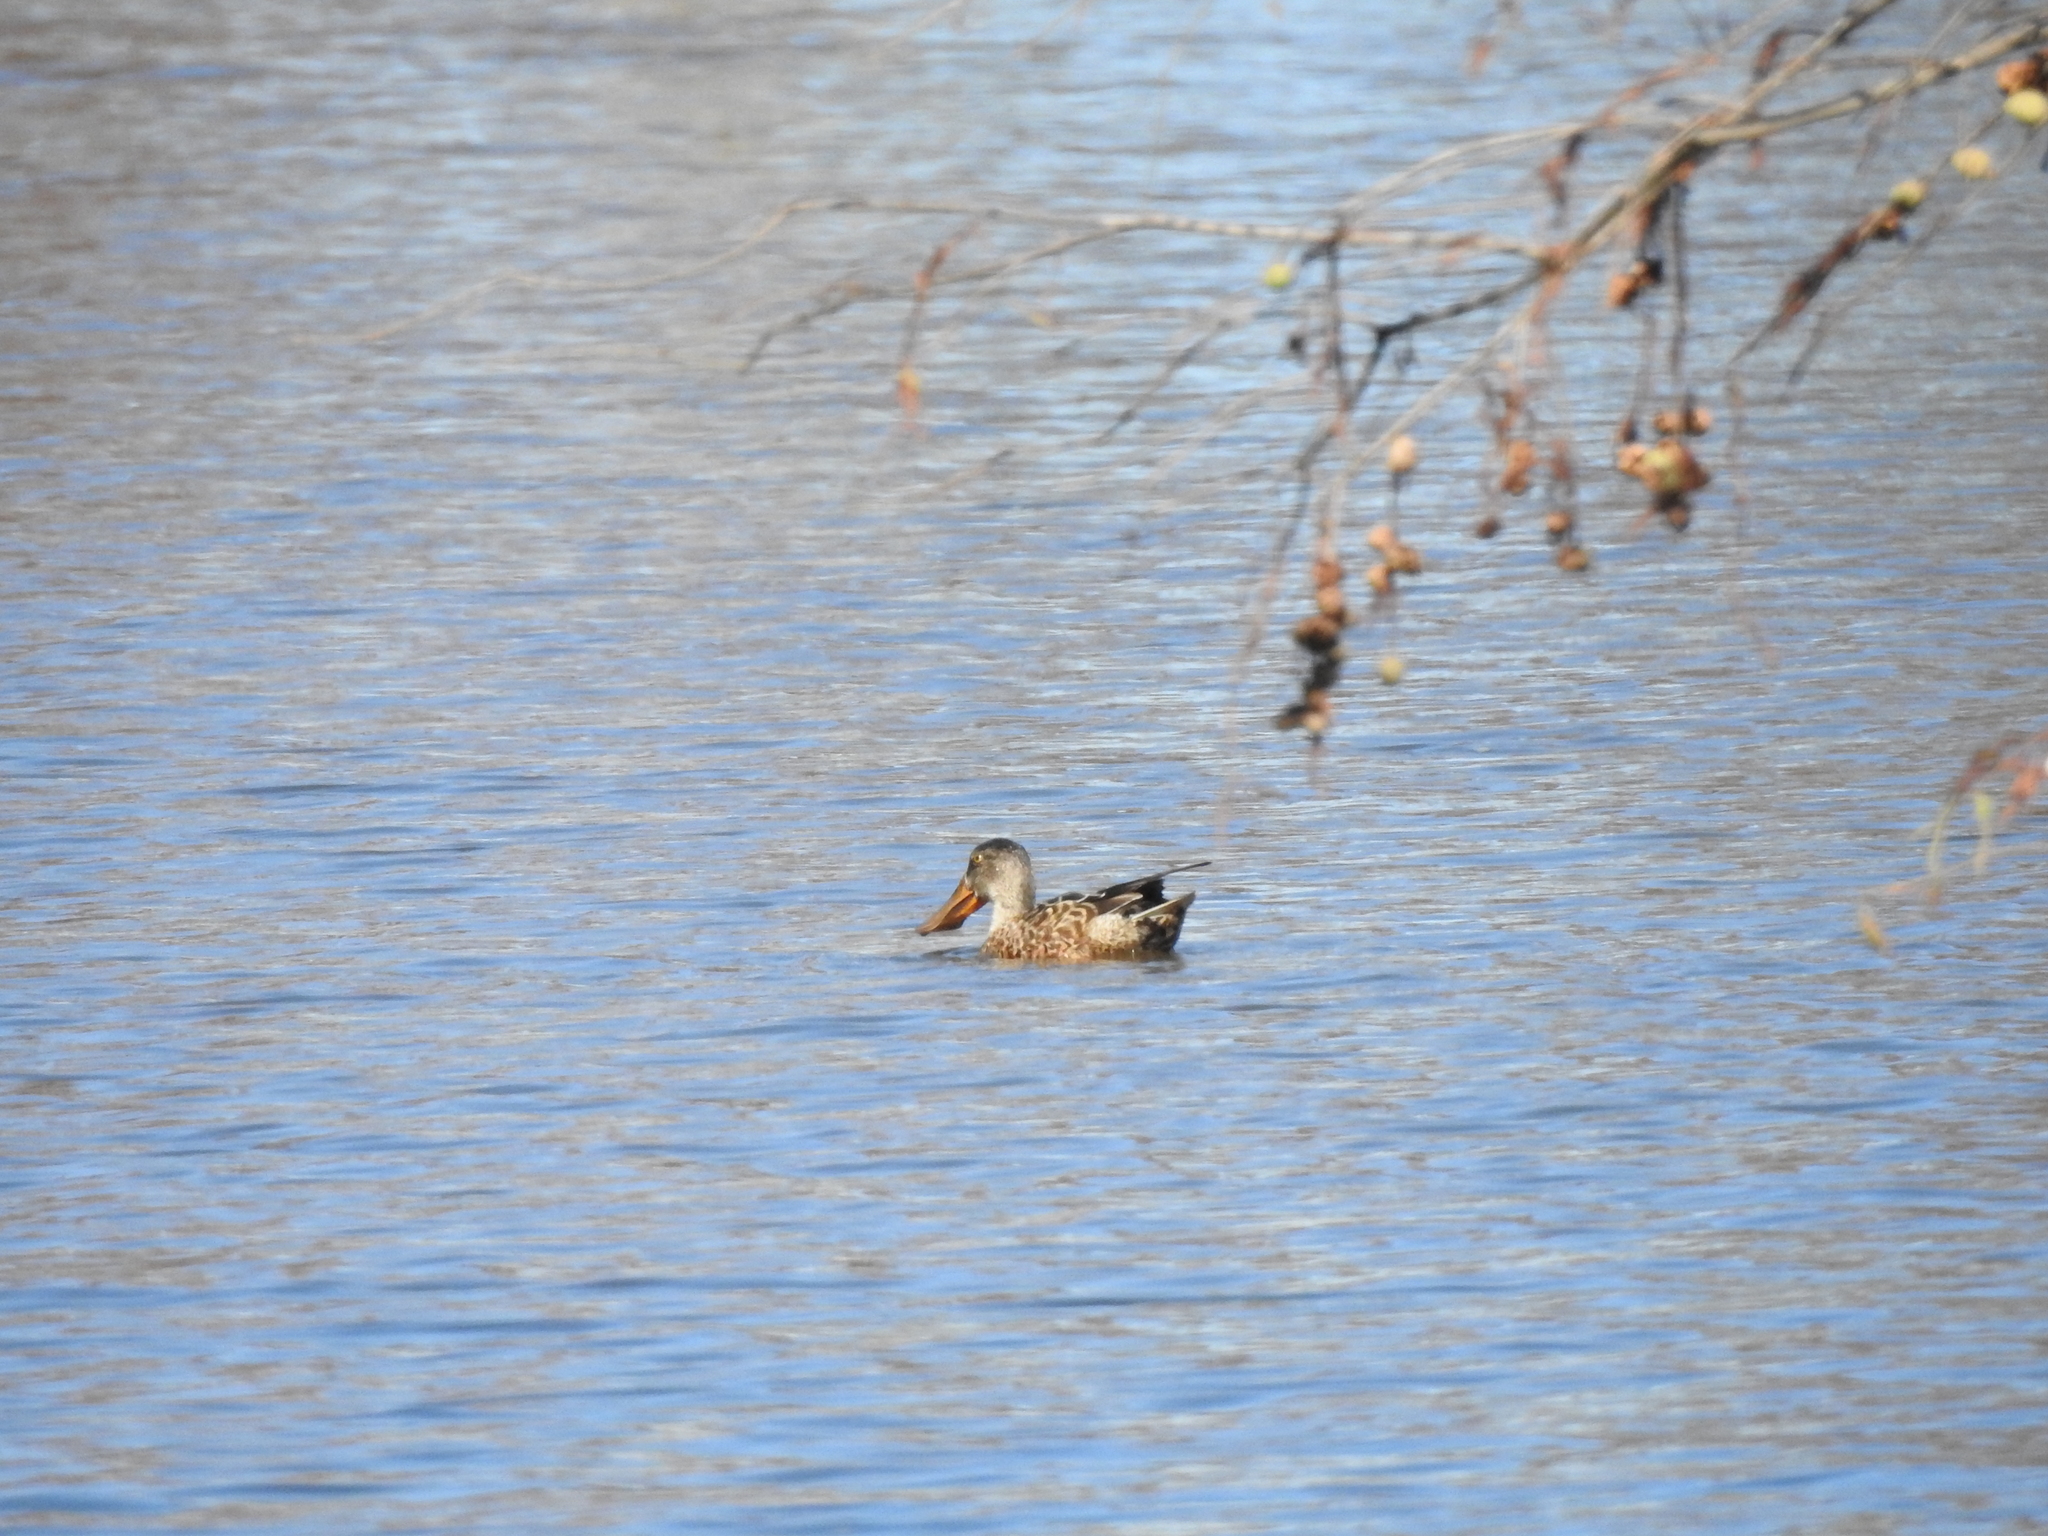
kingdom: Animalia
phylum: Chordata
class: Aves
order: Anseriformes
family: Anatidae
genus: Spatula
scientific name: Spatula clypeata
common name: Northern shoveler
